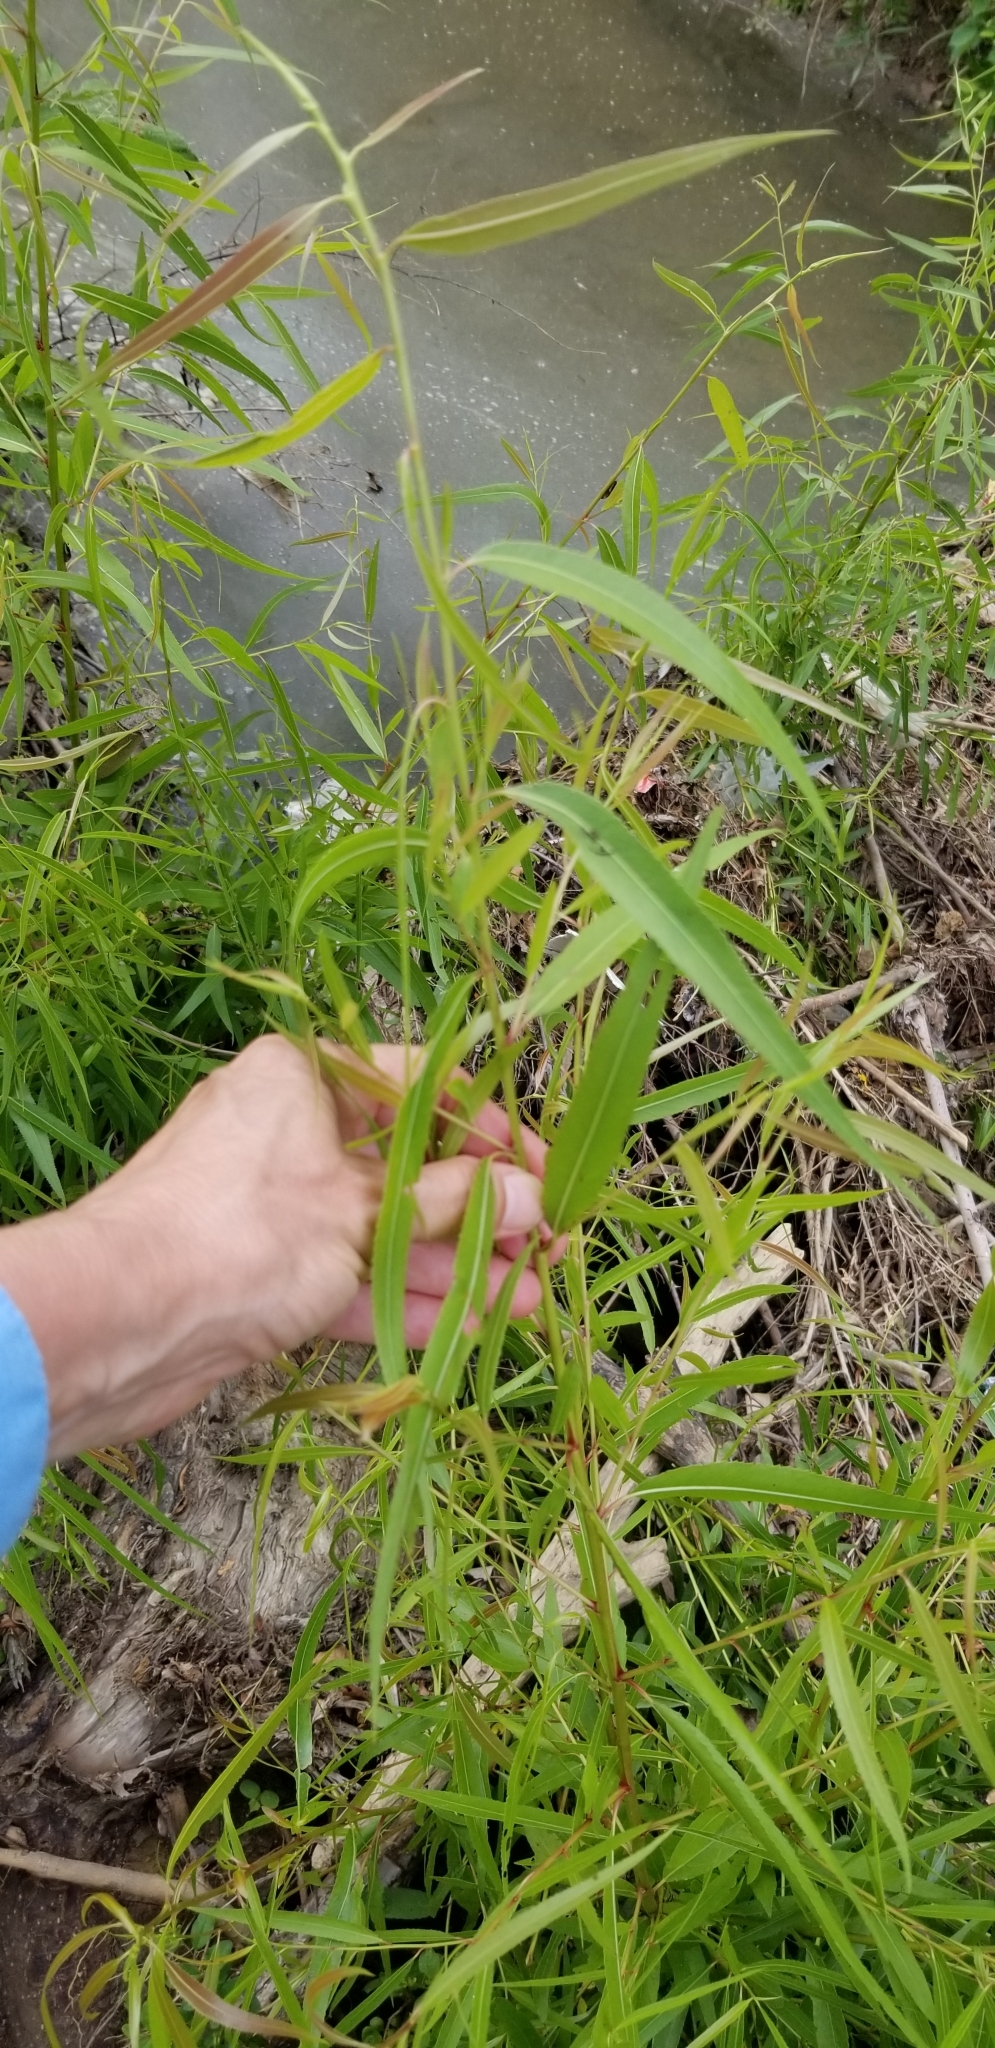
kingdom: Plantae
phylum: Tracheophyta
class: Magnoliopsida
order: Malpighiales
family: Salicaceae
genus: Salix
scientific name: Salix nigra
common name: Black willow
